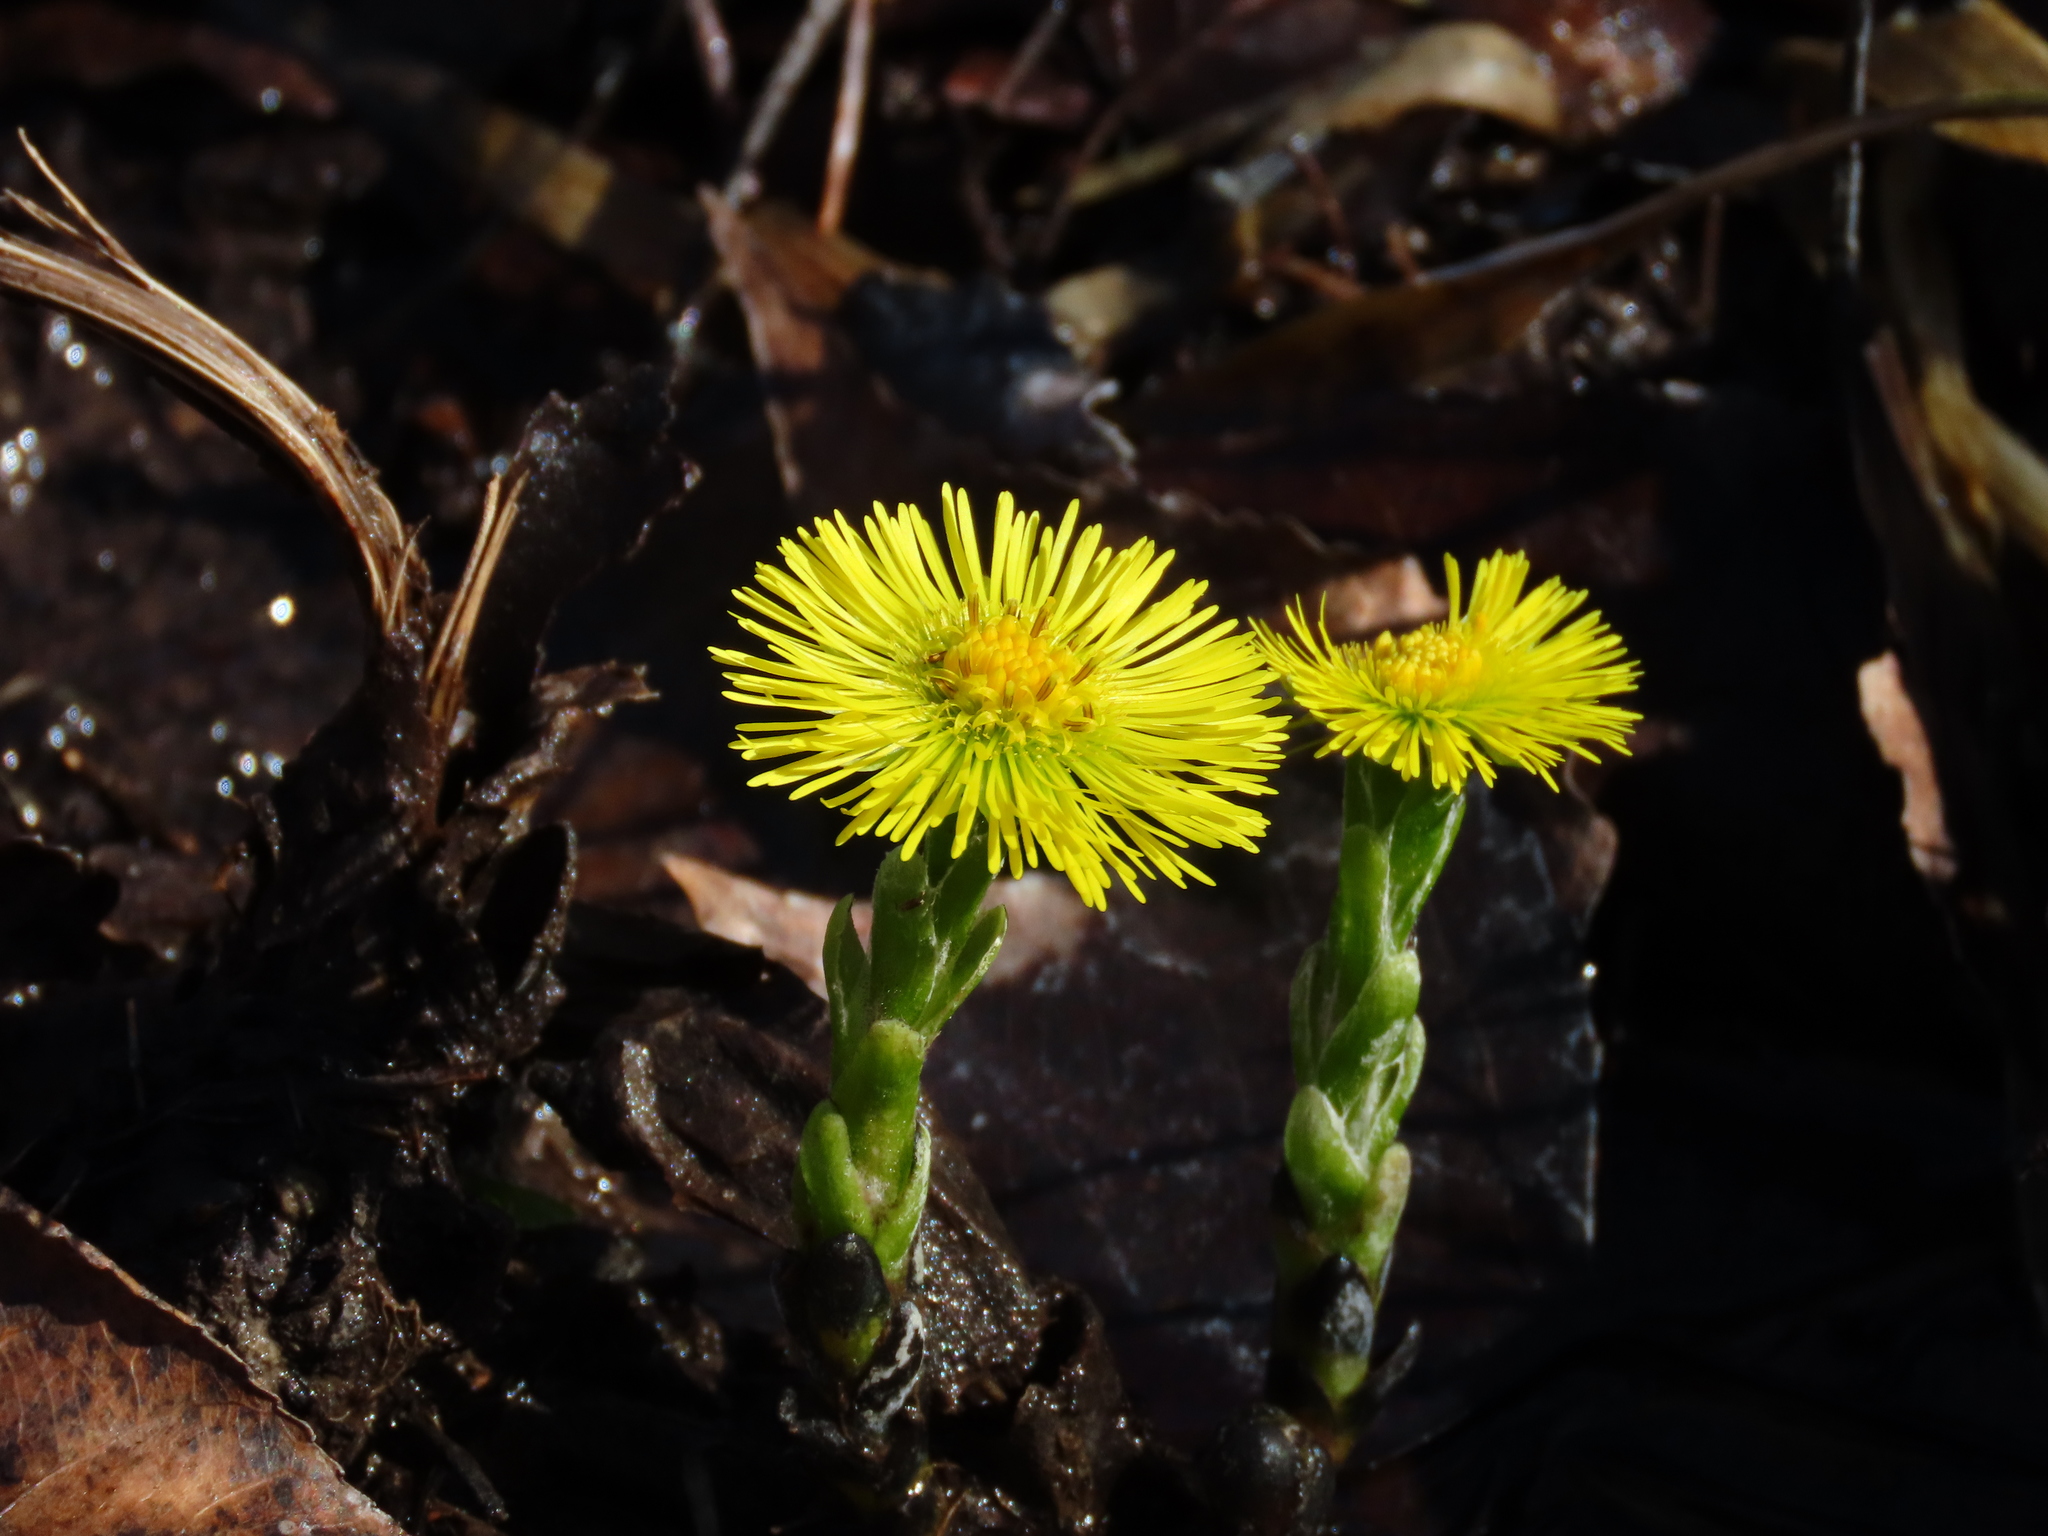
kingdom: Plantae
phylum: Tracheophyta
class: Magnoliopsida
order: Asterales
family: Asteraceae
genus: Tussilago
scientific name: Tussilago farfara
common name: Coltsfoot
